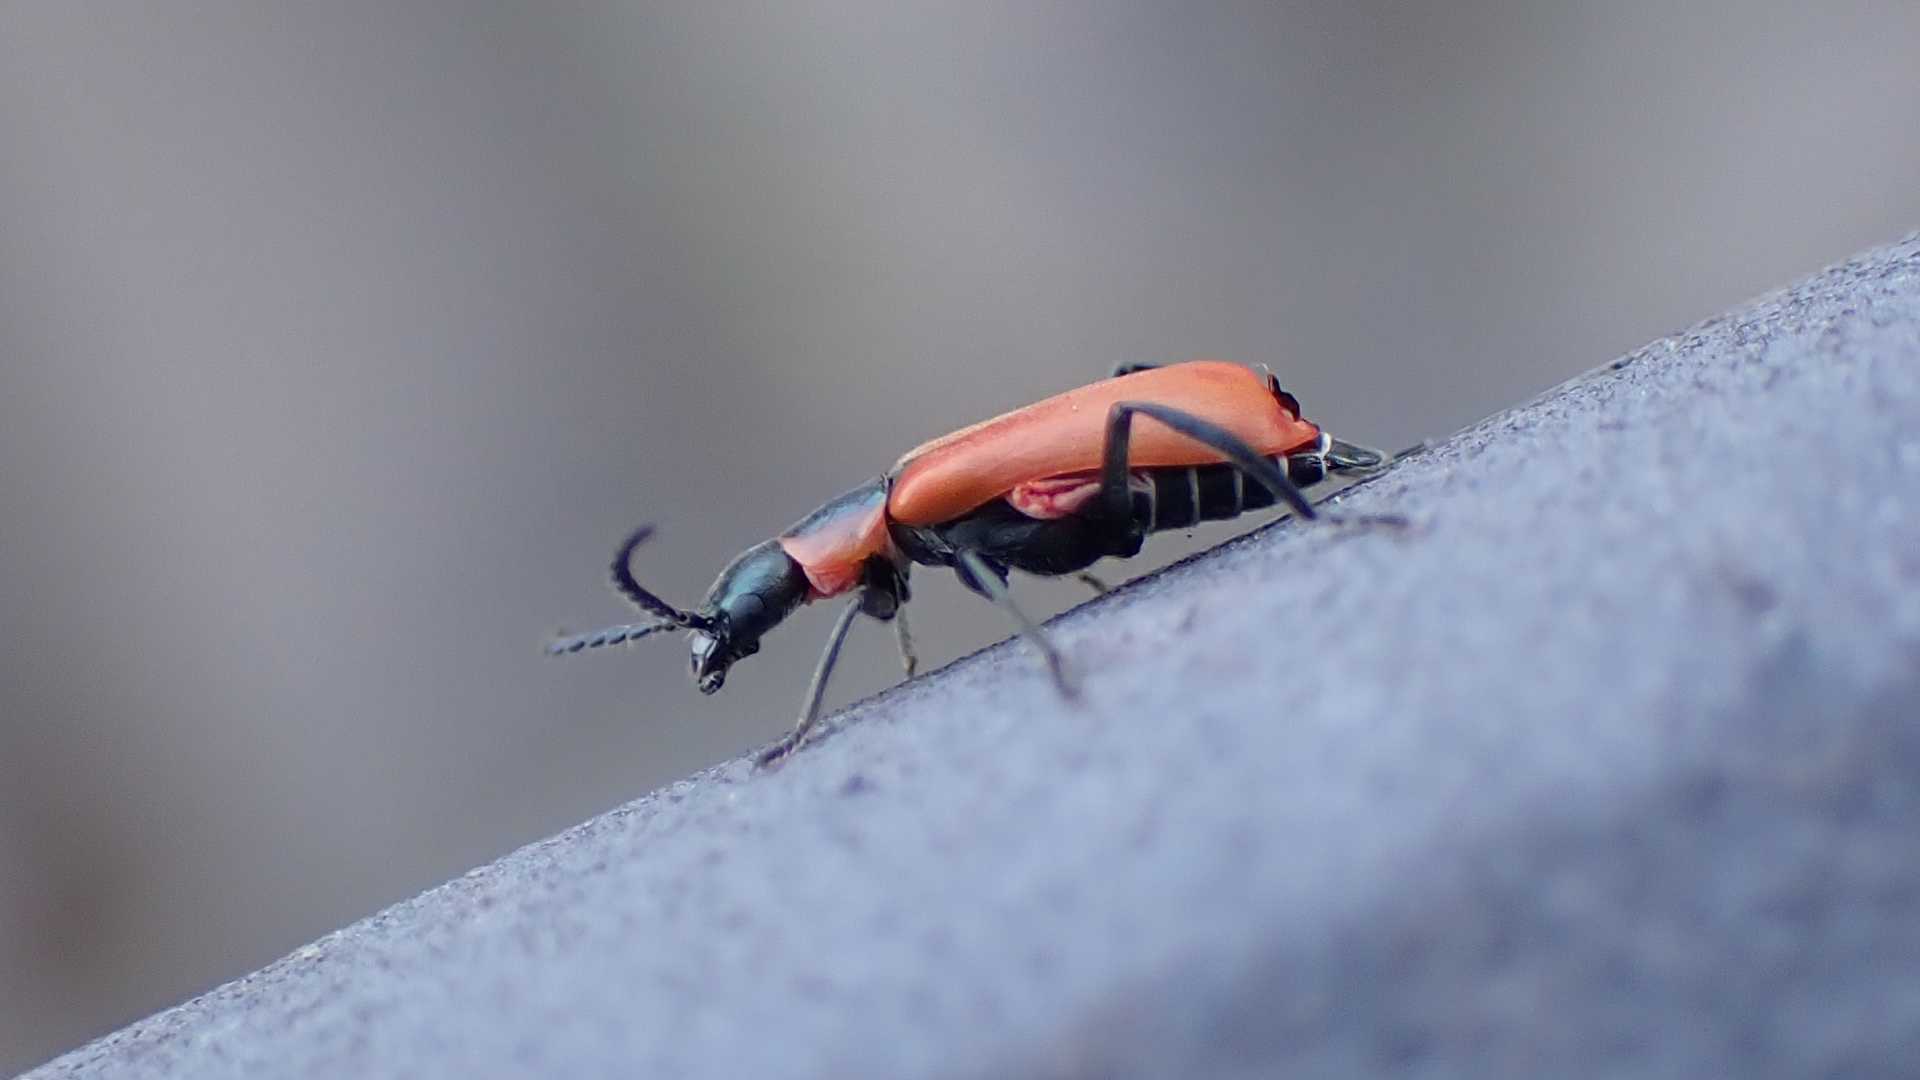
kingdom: Animalia
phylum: Arthropoda
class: Insecta
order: Coleoptera
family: Melyridae
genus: Anthocomus
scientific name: Anthocomus rufus
